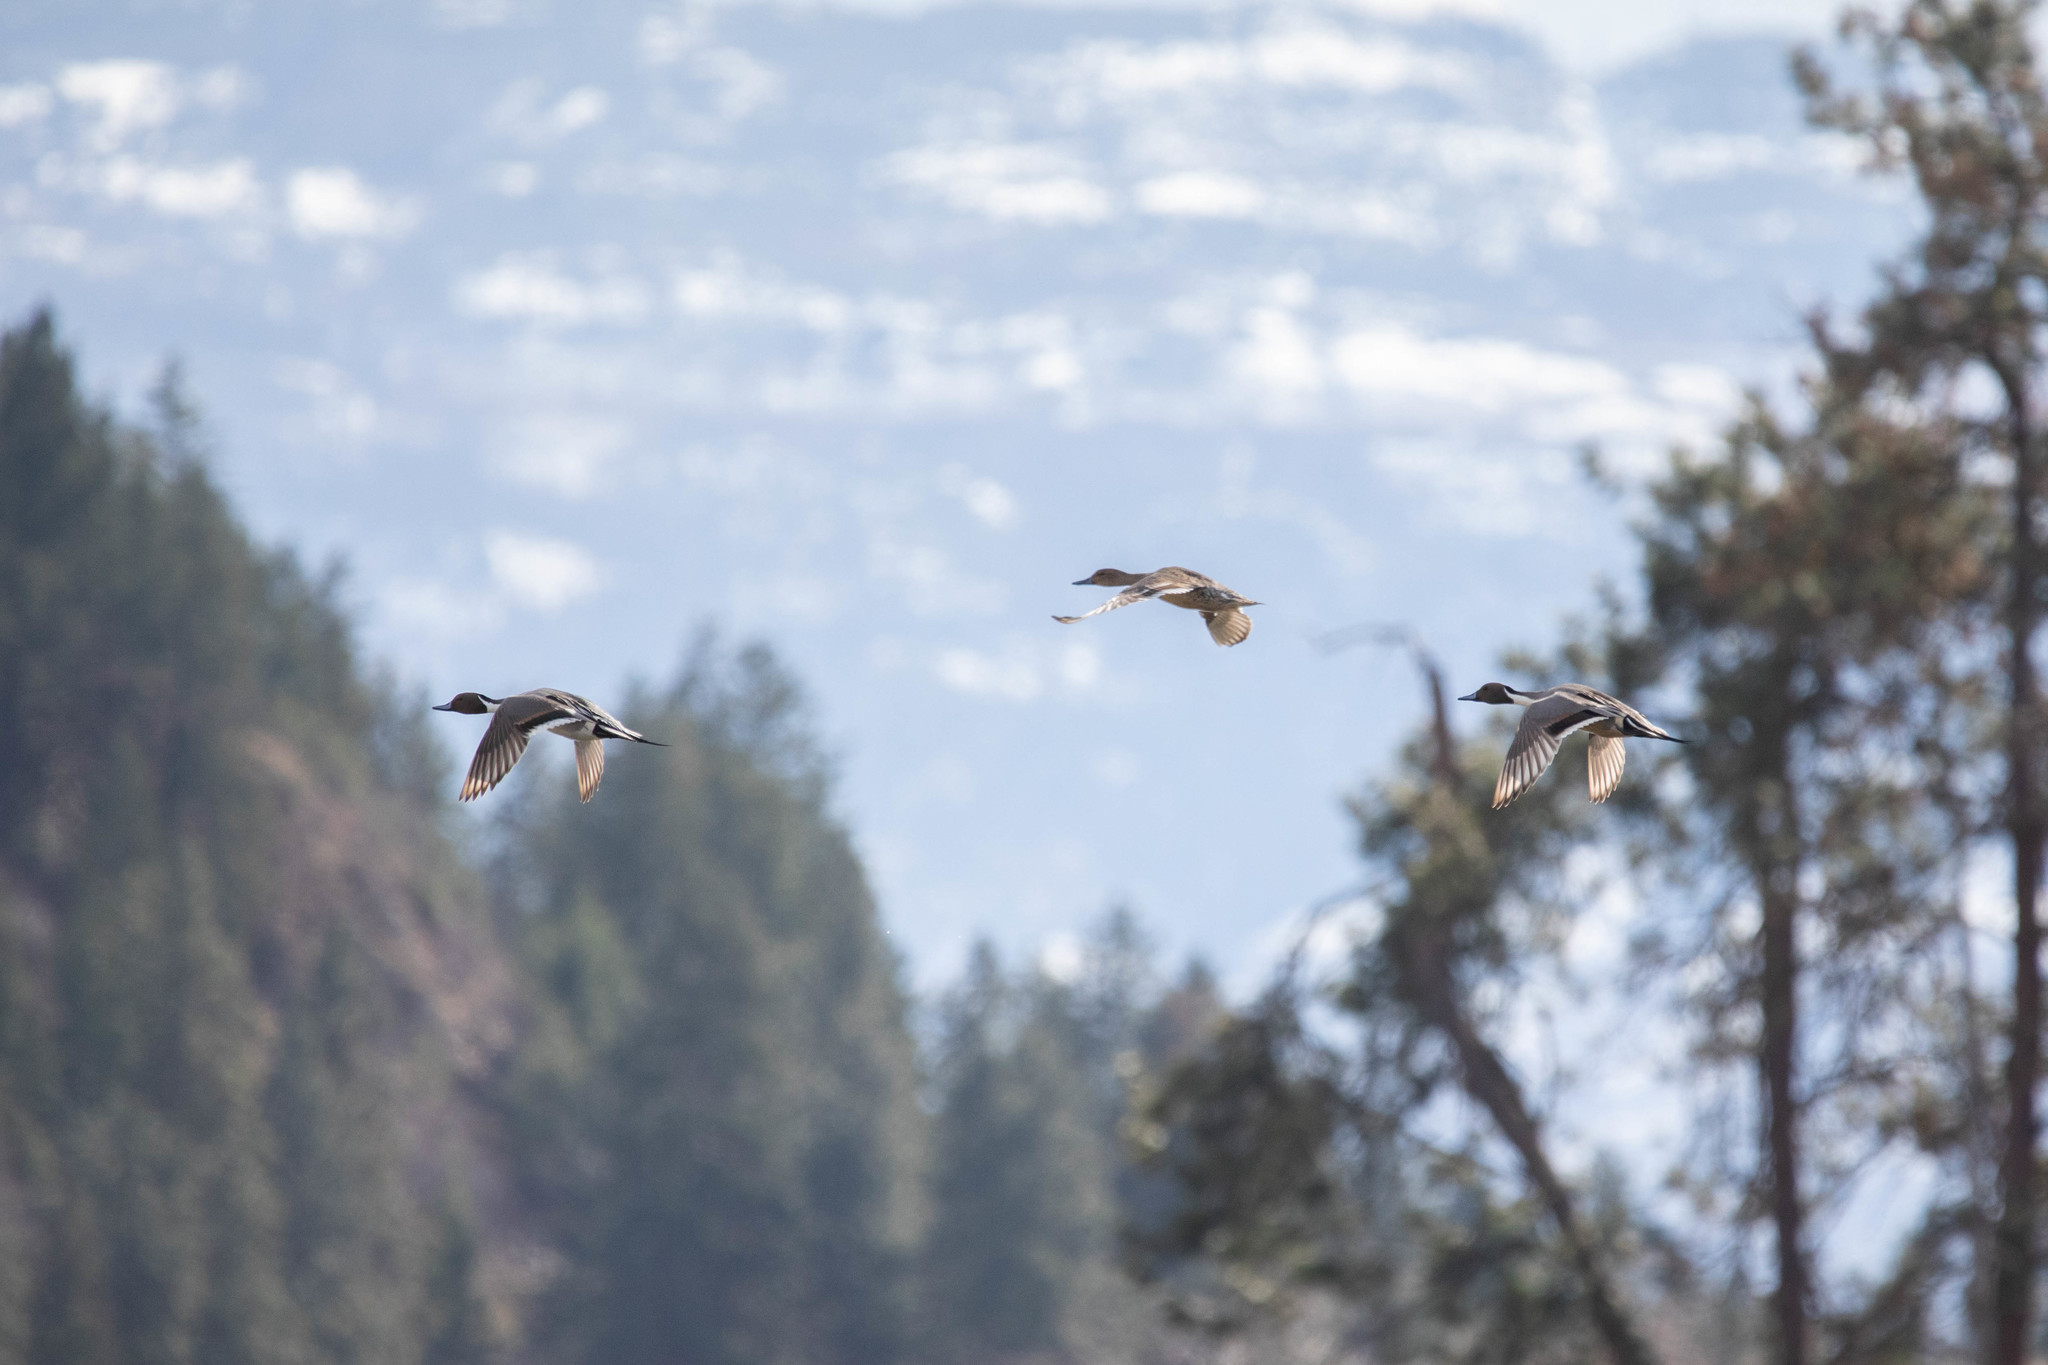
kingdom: Animalia
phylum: Chordata
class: Aves
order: Anseriformes
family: Anatidae
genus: Anas
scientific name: Anas acuta
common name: Northern pintail
